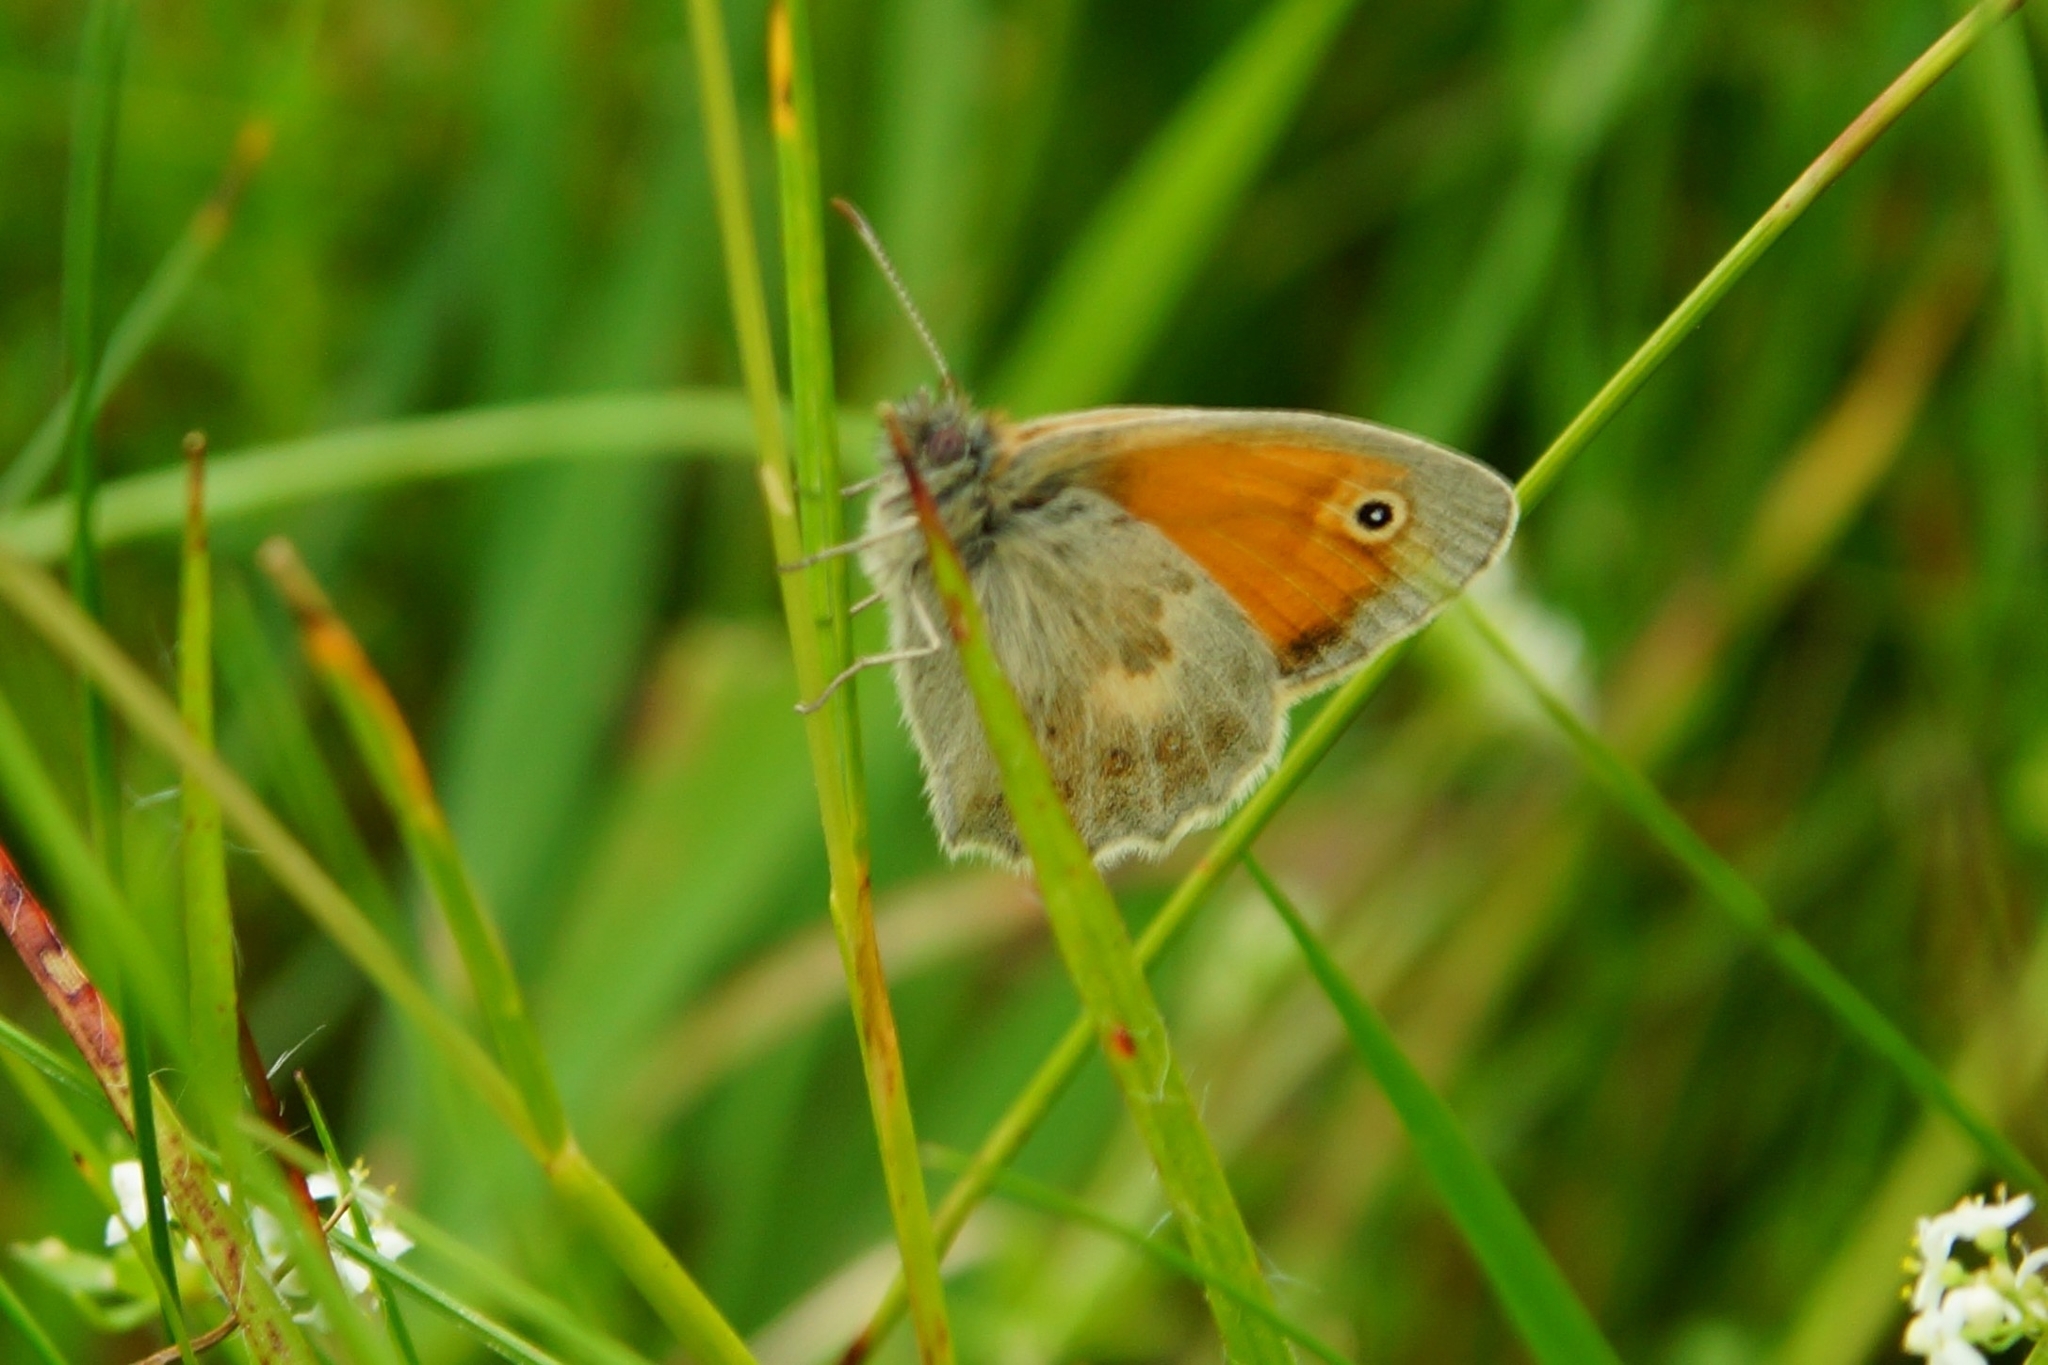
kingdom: Animalia
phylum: Arthropoda
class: Insecta
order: Lepidoptera
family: Nymphalidae
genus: Coenonympha
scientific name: Coenonympha pamphilus
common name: Small heath
